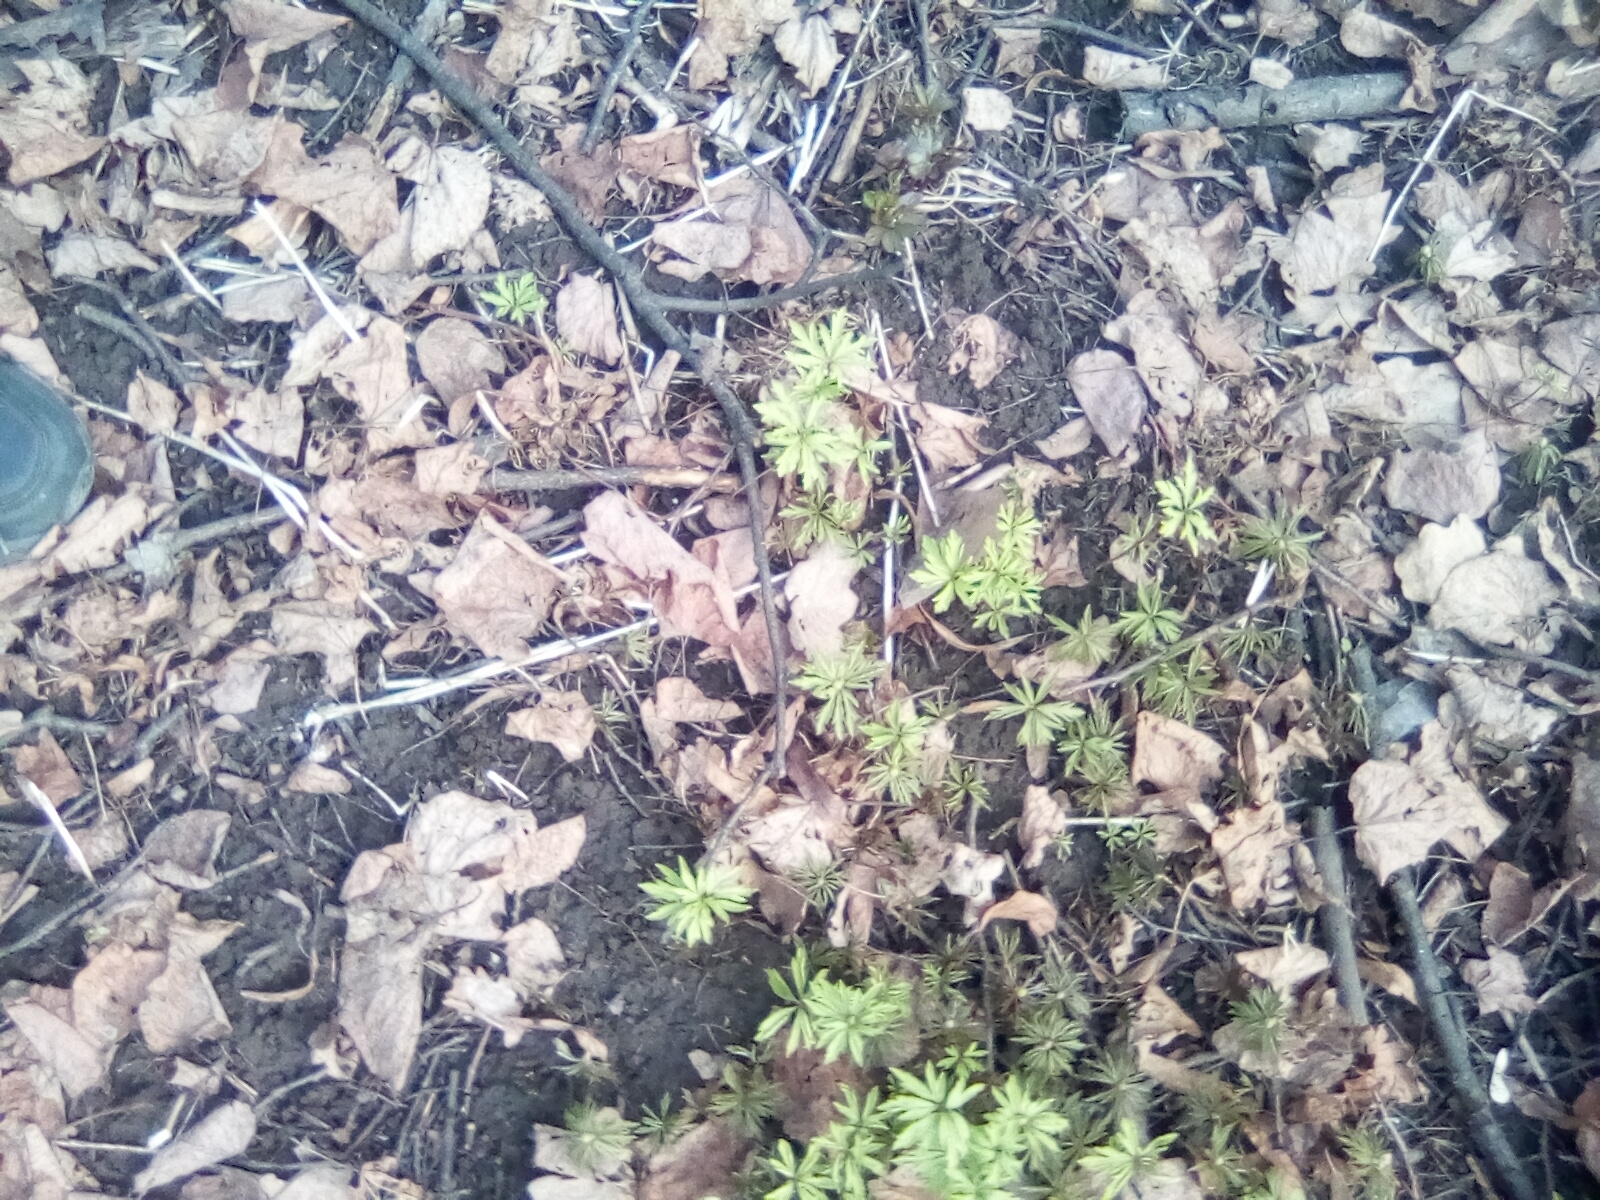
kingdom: Plantae
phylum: Tracheophyta
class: Magnoliopsida
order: Ranunculales
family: Ranunculaceae
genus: Anemone
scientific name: Anemone ranunculoides
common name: Yellow anemone
